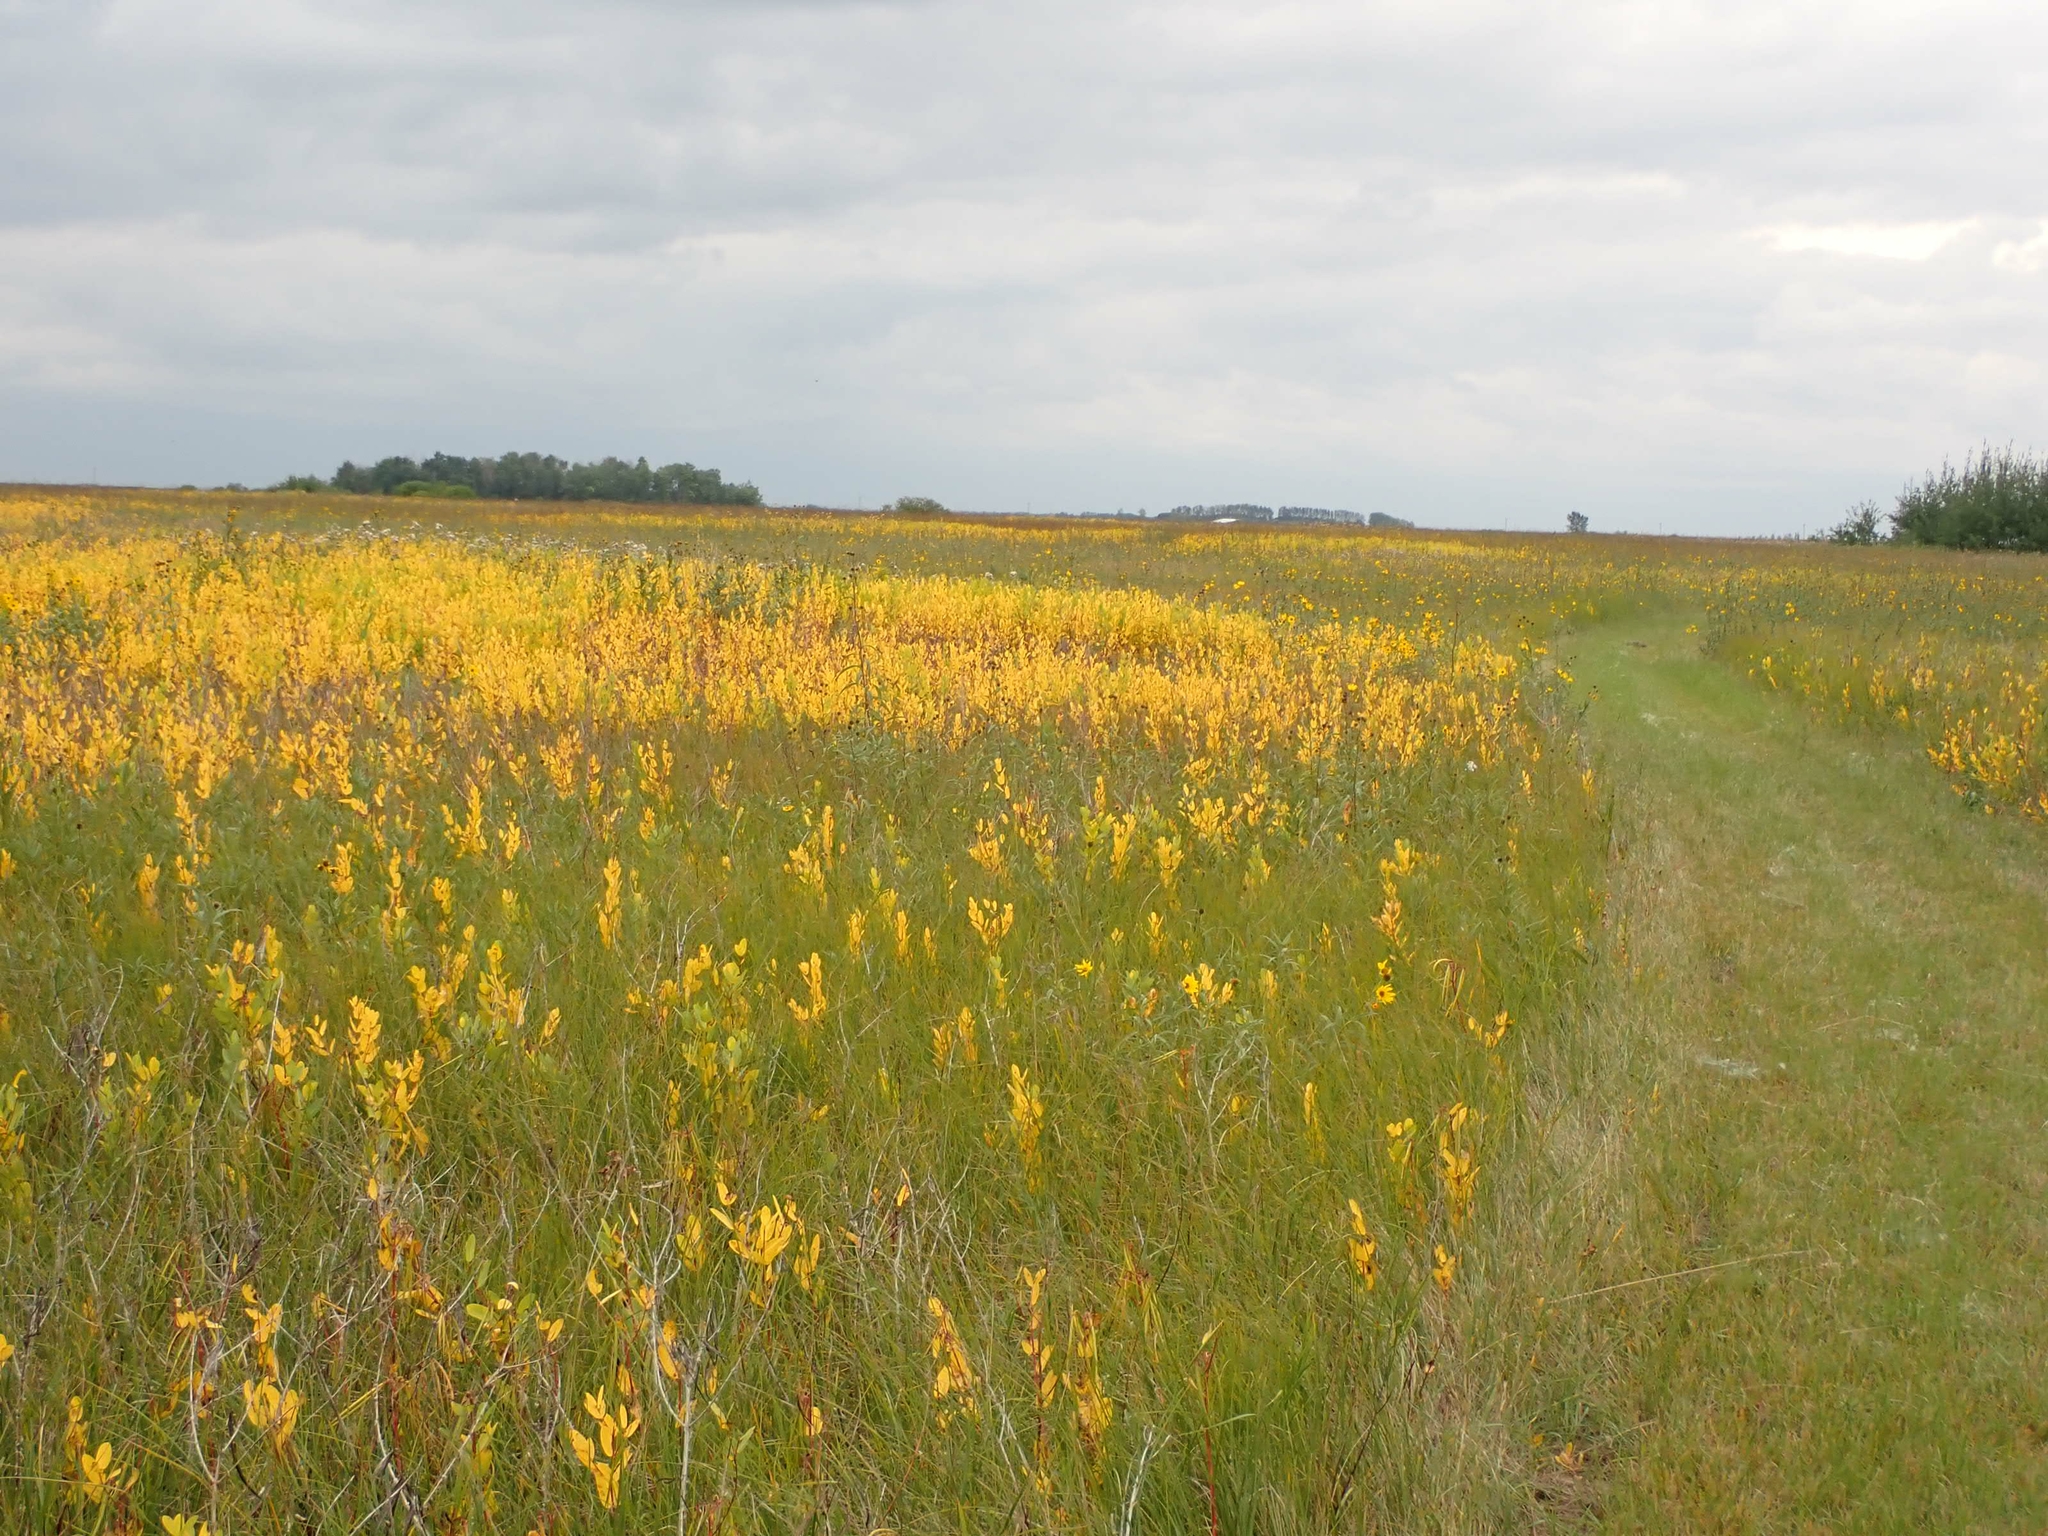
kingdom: Plantae
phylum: Tracheophyta
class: Magnoliopsida
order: Gentianales
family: Apocynaceae
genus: Apocynum
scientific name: Apocynum cannabinum
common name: Hemp dogbane
